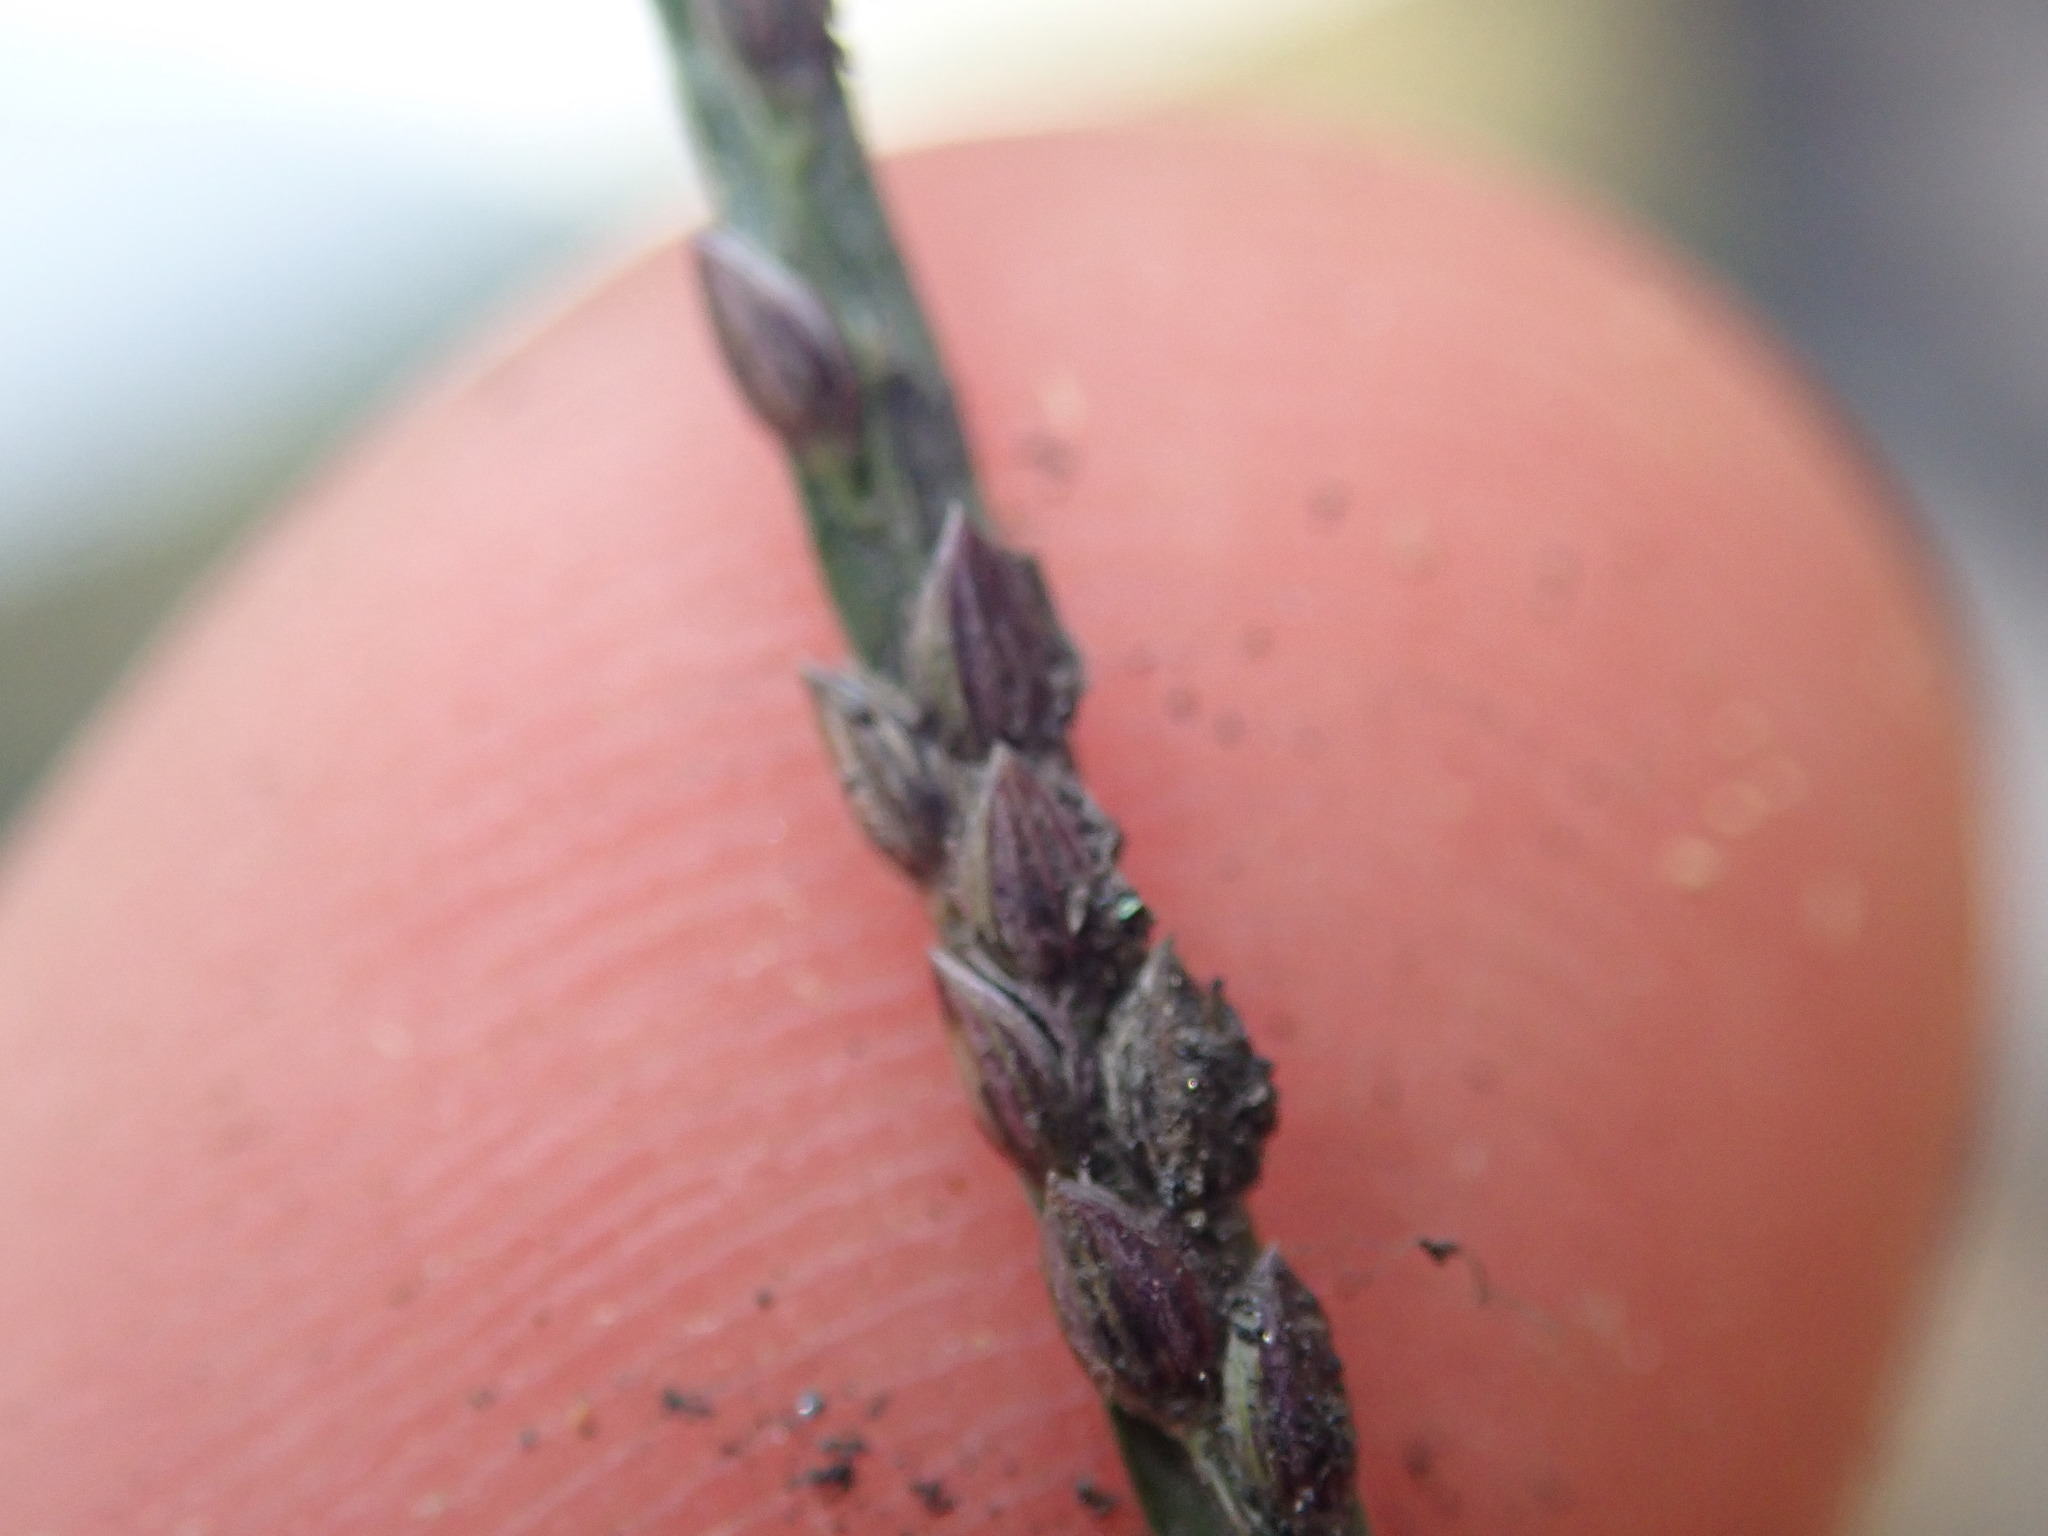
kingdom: Plantae
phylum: Tracheophyta
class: Liliopsida
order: Poales
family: Poaceae
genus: Digitaria
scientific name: Digitaria ischaemum
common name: Smooth crabgrass
